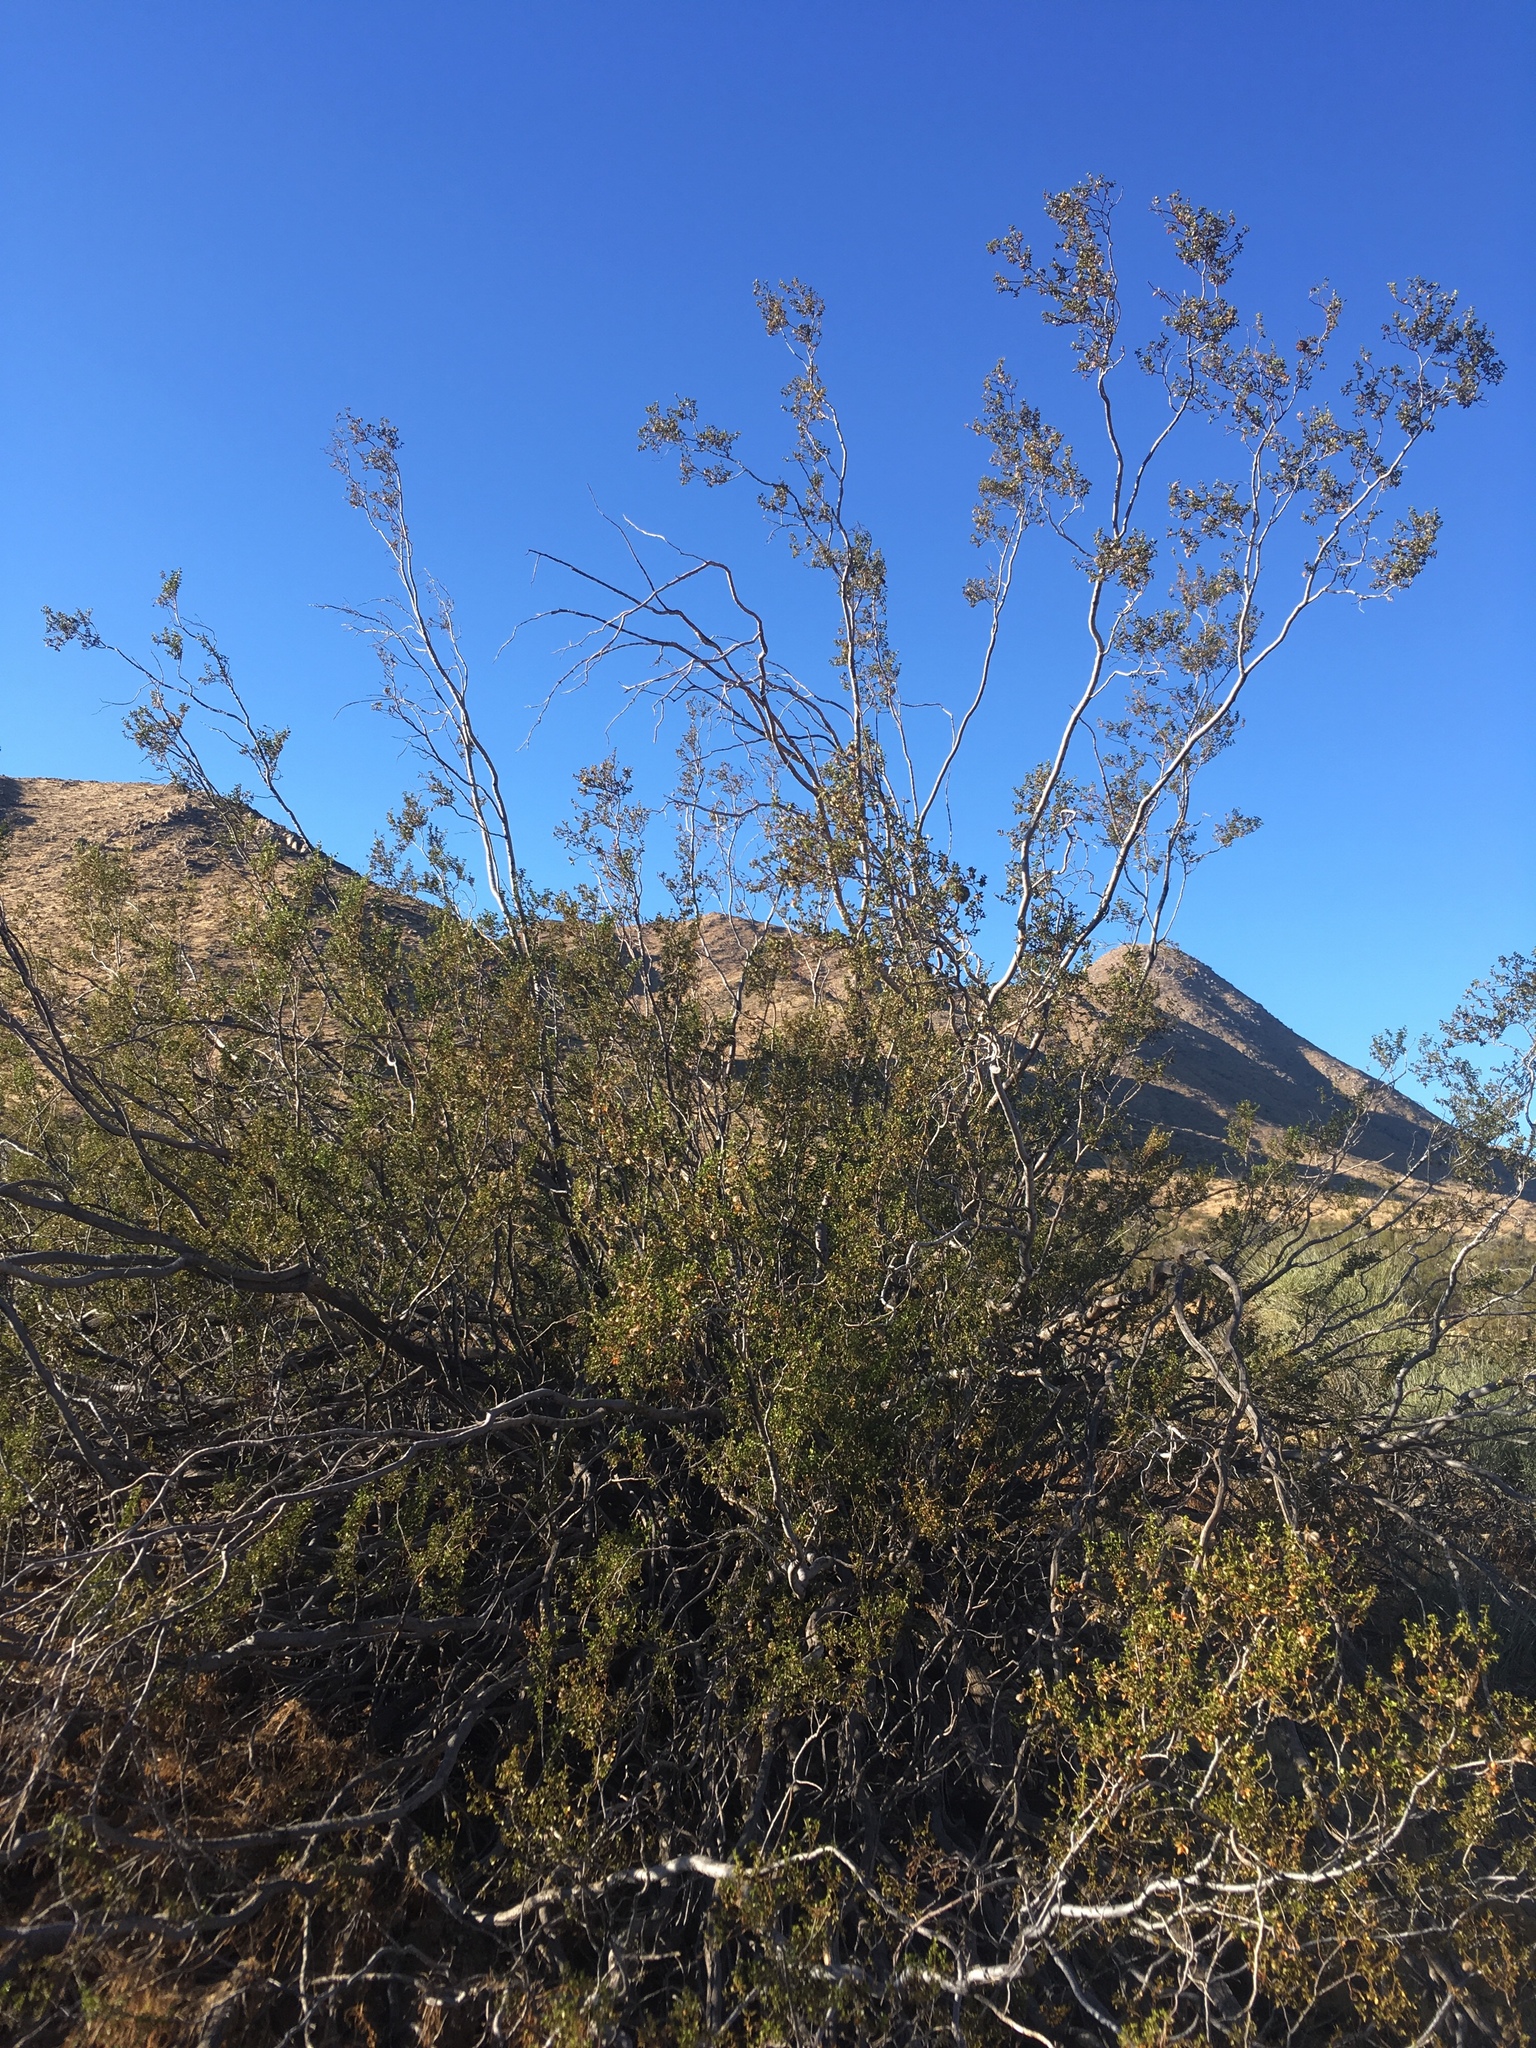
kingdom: Plantae
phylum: Tracheophyta
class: Magnoliopsida
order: Zygophyllales
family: Zygophyllaceae
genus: Larrea
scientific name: Larrea tridentata
